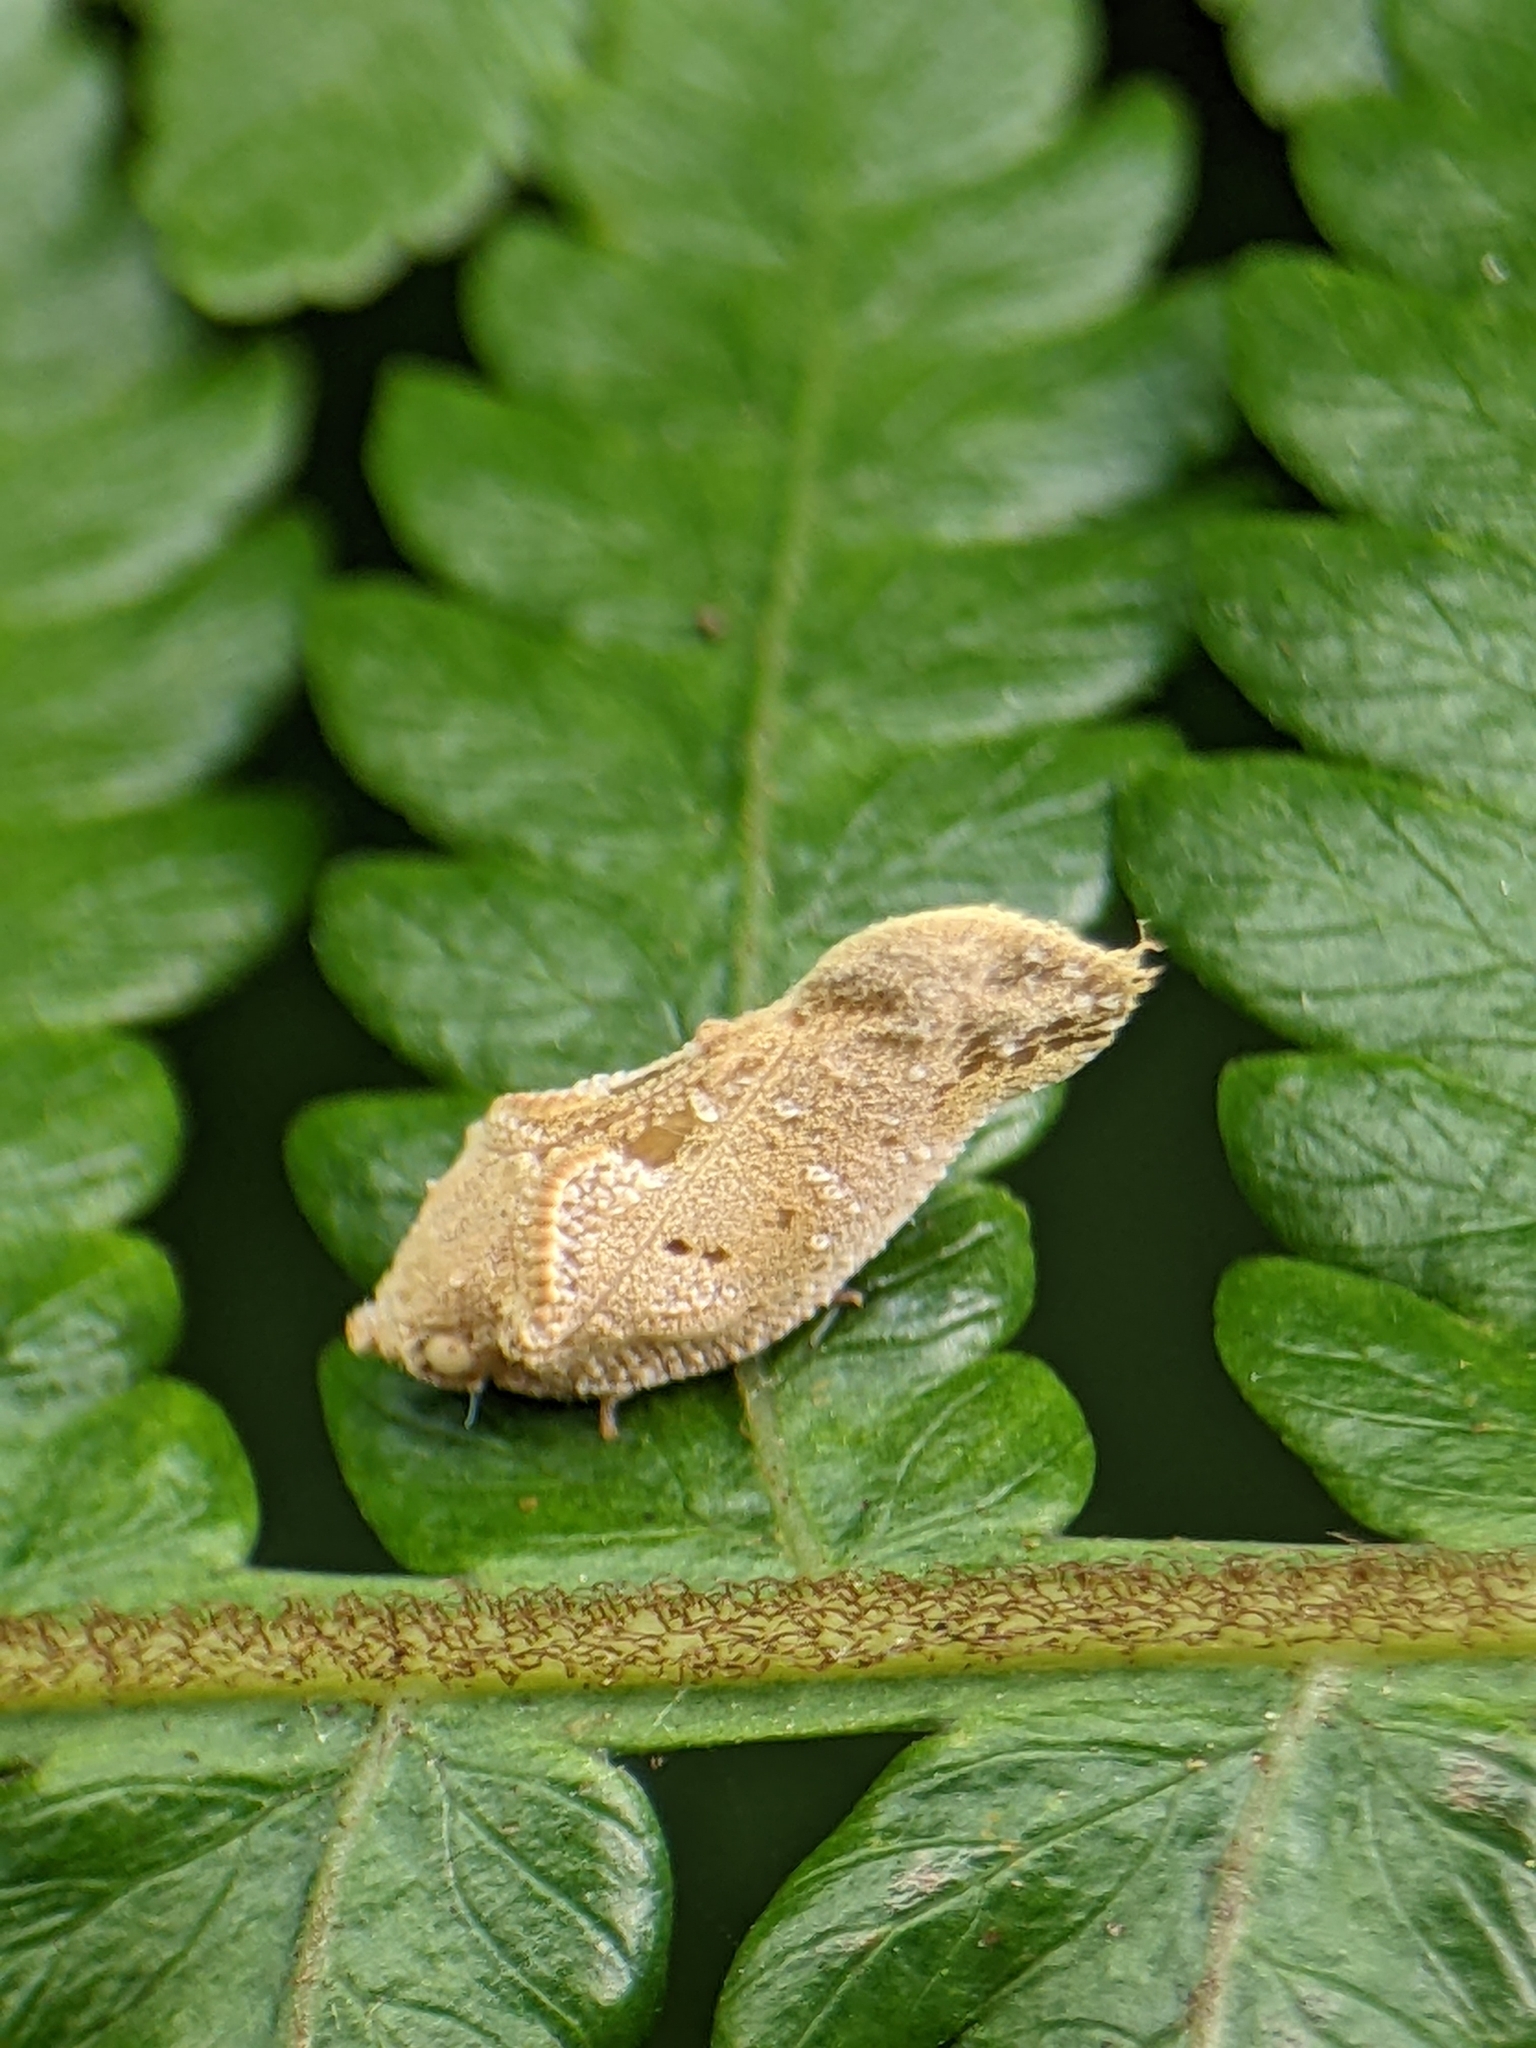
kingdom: Animalia
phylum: Arthropoda
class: Insecta
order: Hemiptera
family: Flatidae
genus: Seliza
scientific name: Seliza vidua
